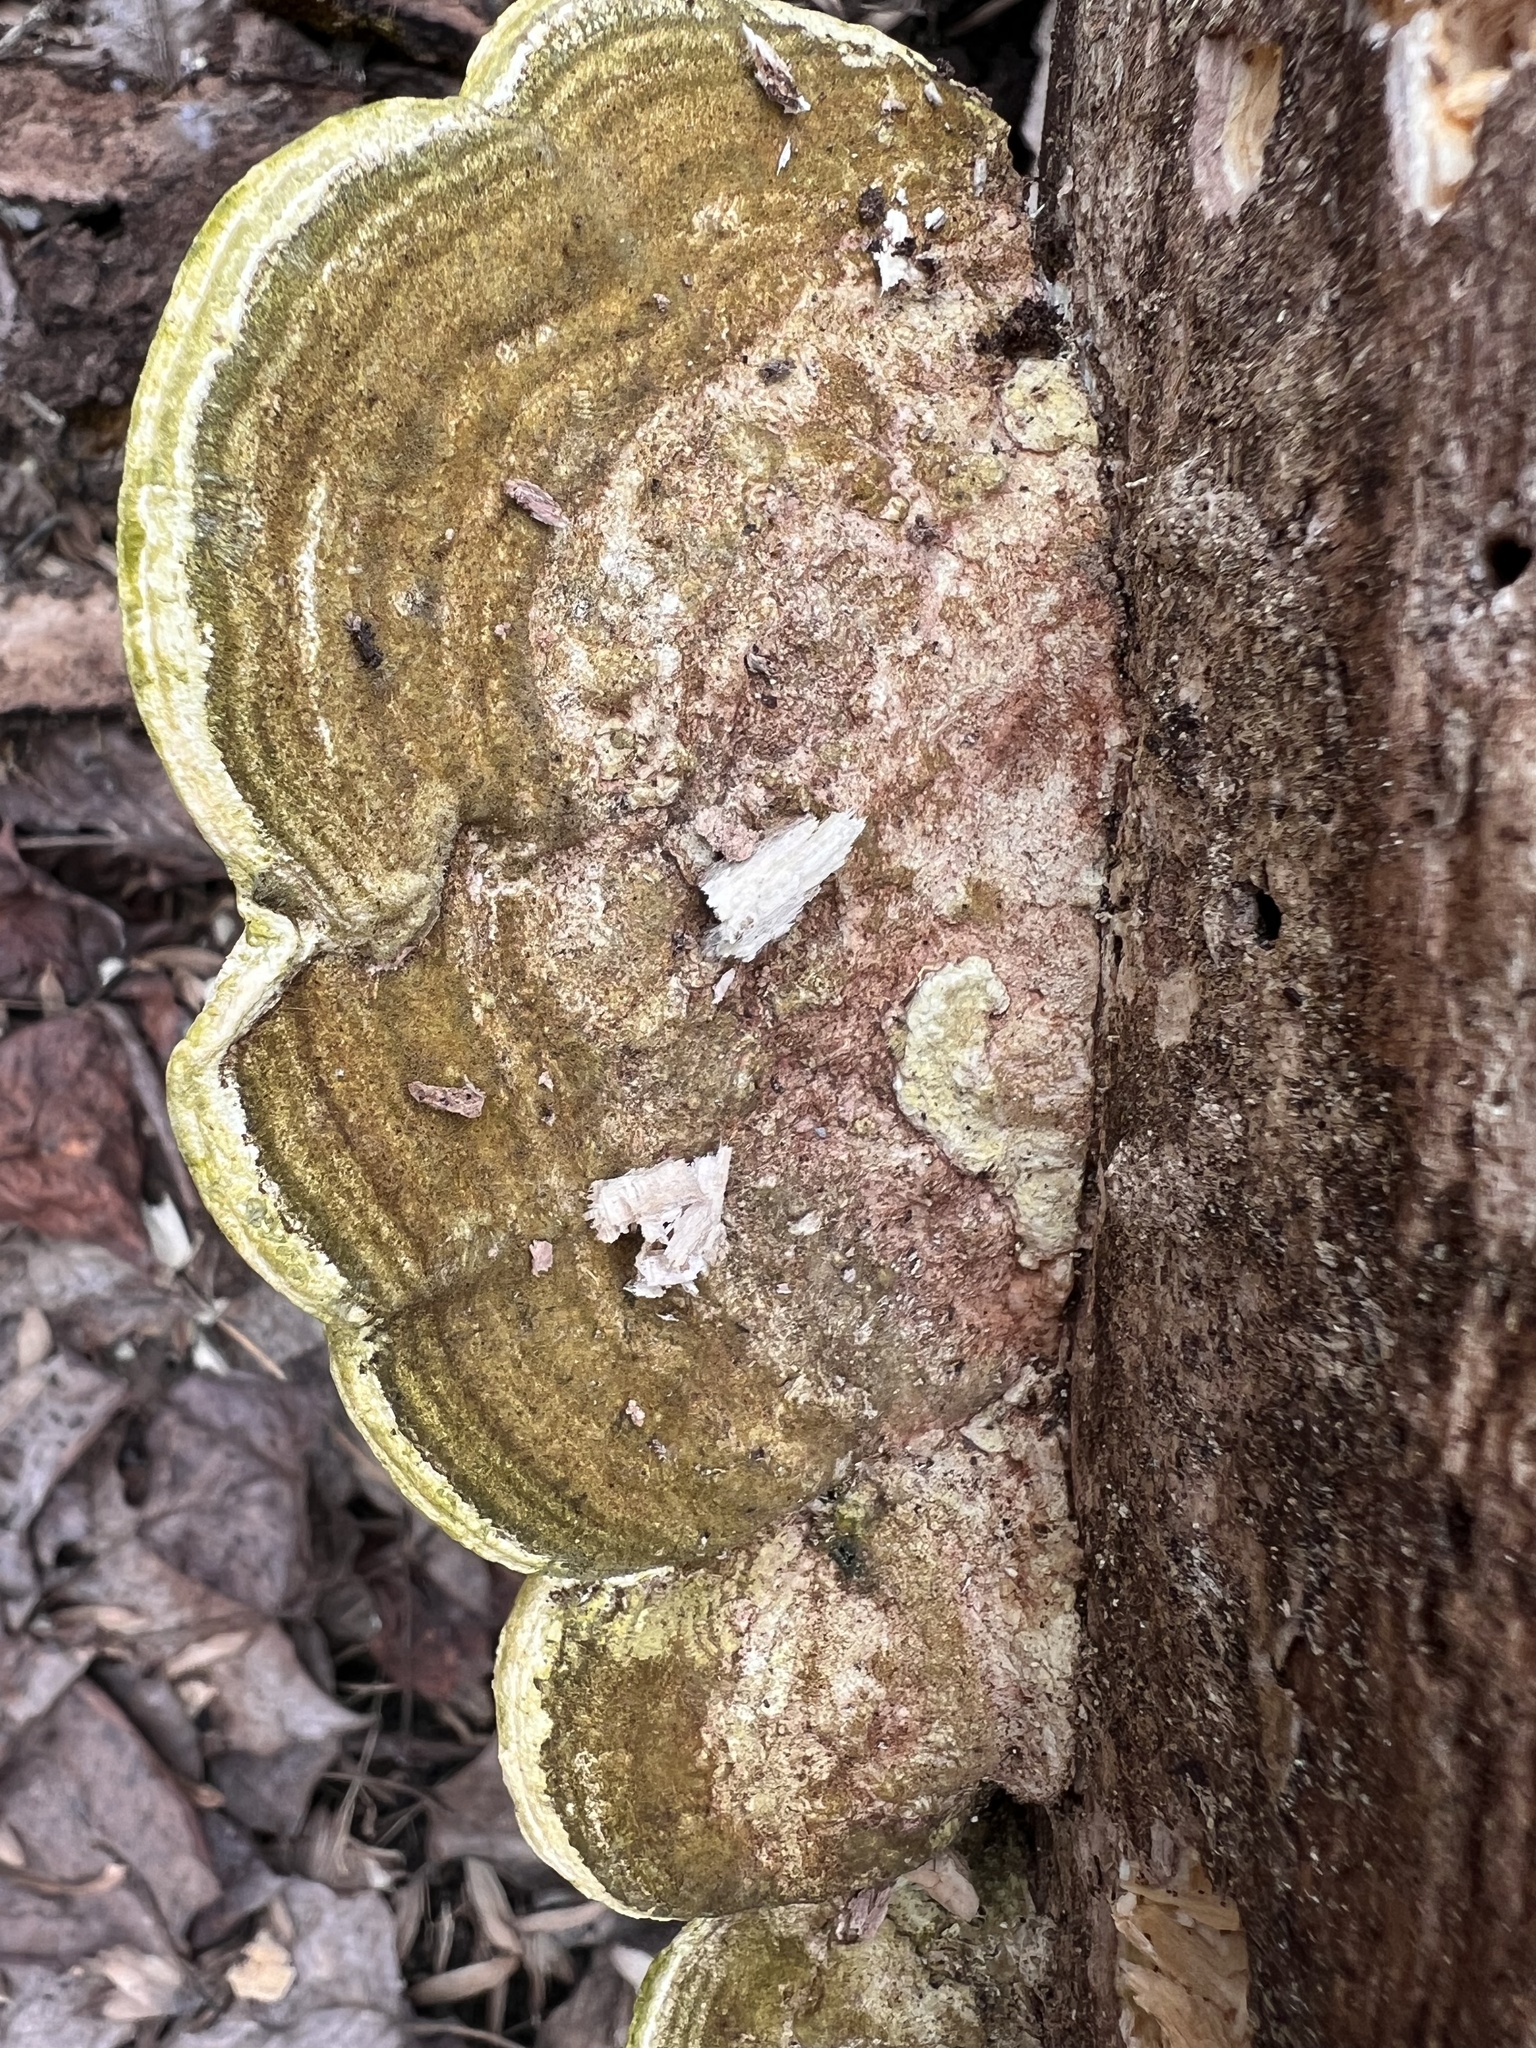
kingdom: Fungi
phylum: Basidiomycota
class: Agaricomycetes
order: Polyporales
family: Polyporaceae
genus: Trametes
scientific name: Trametes gibbosa
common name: Lumpy bracket
